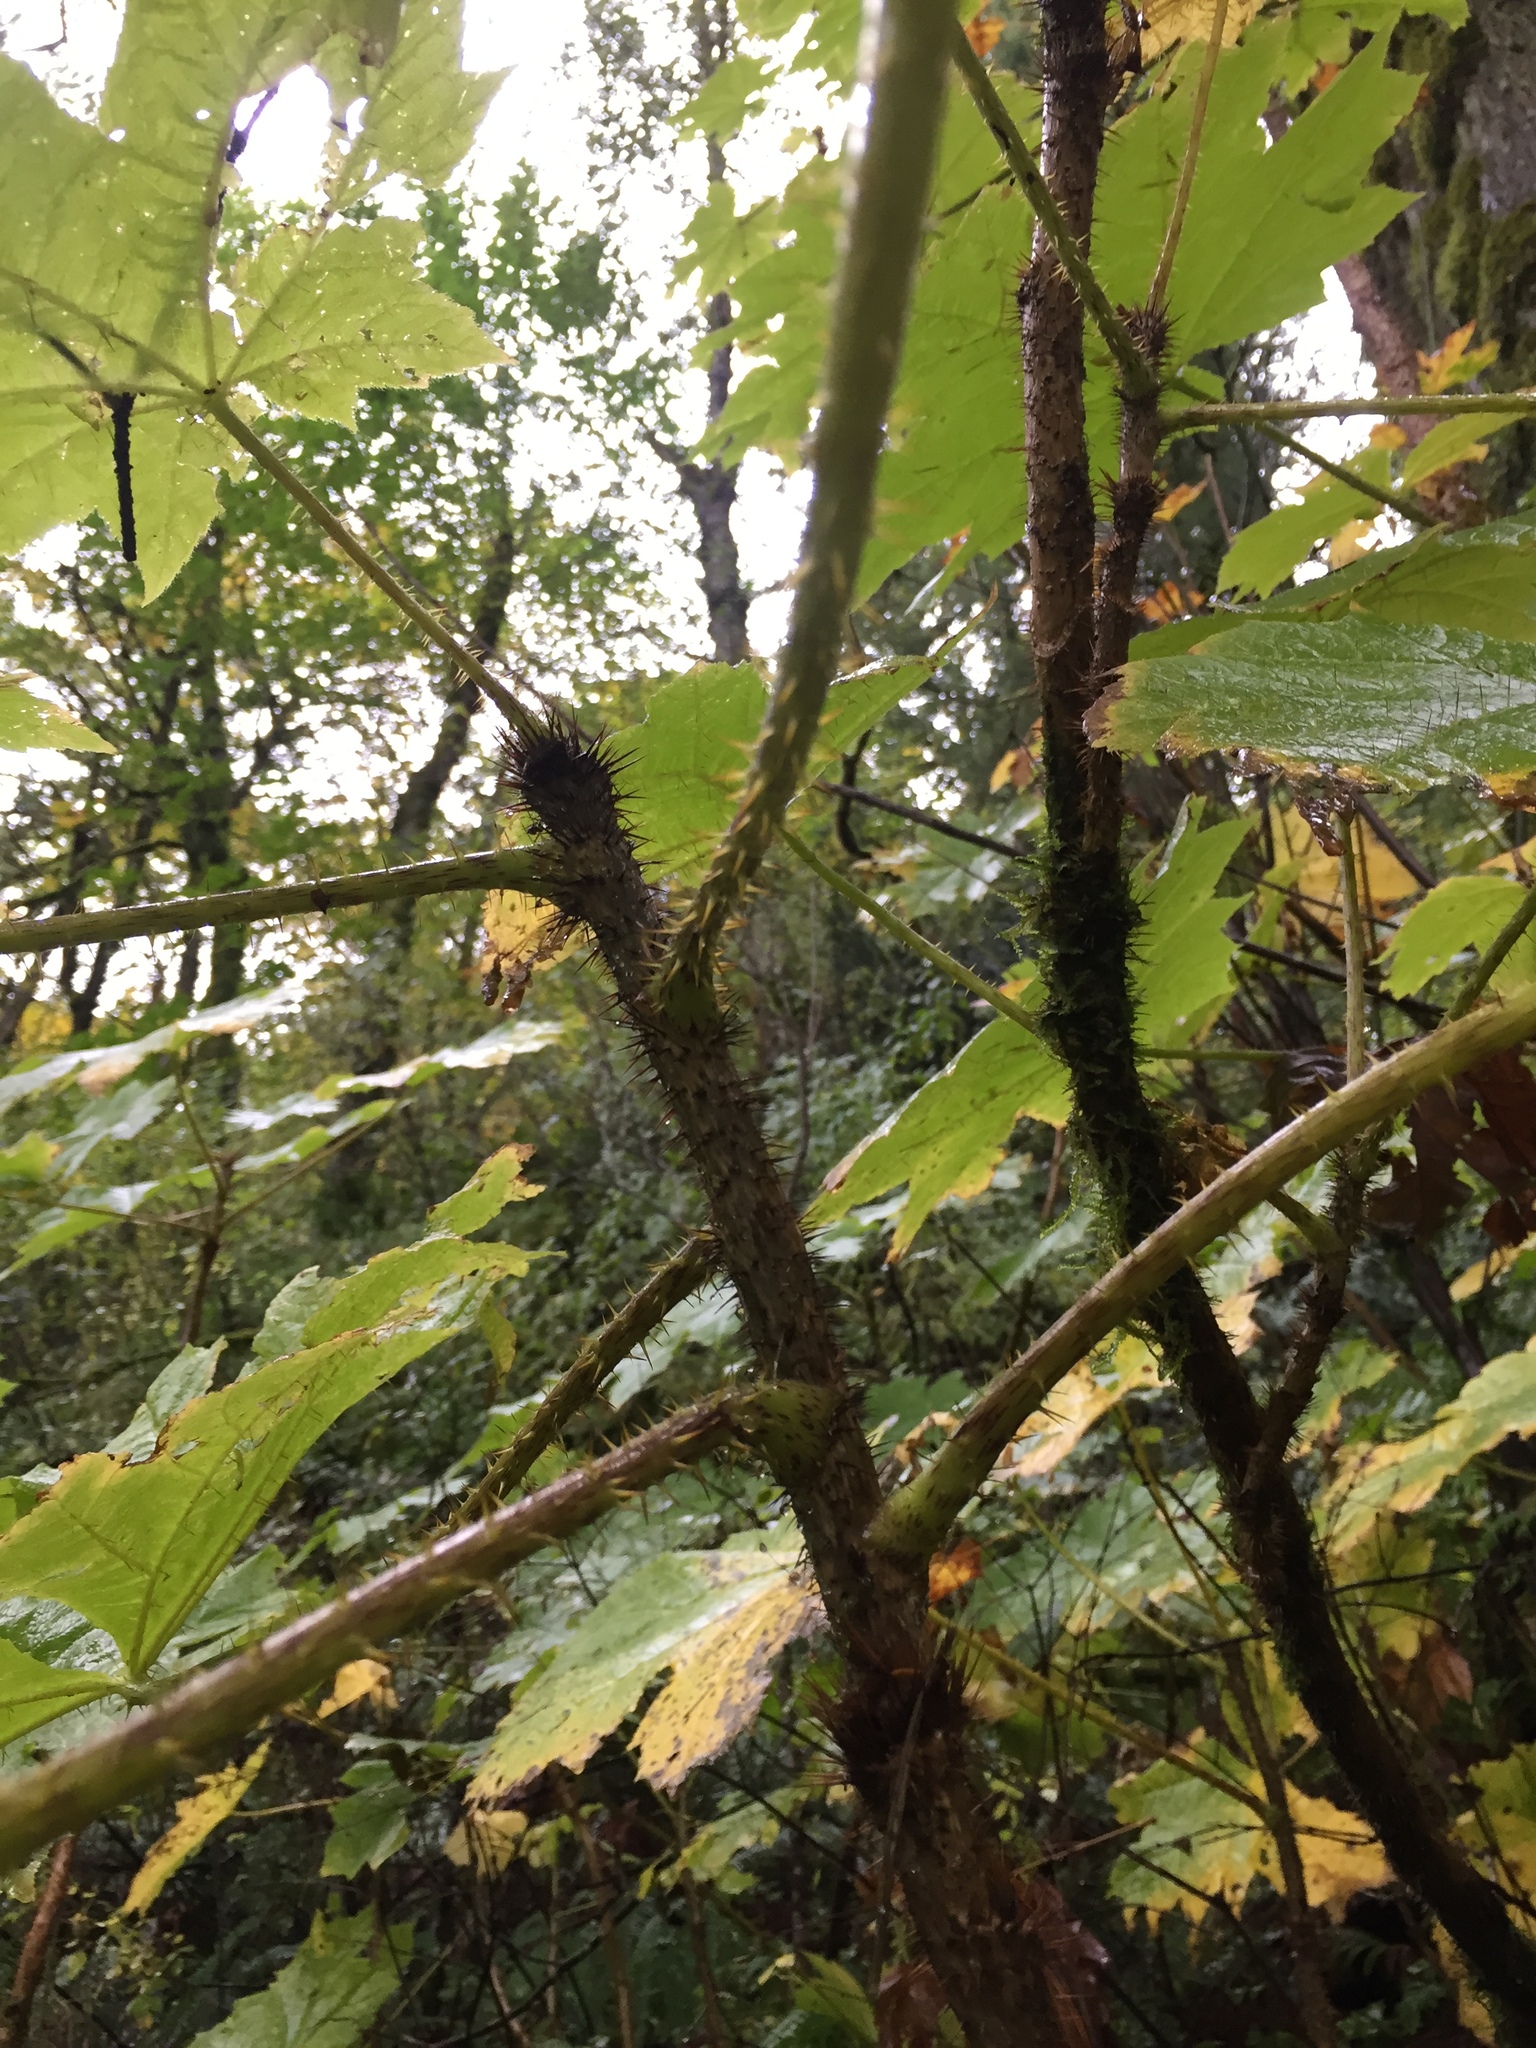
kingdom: Plantae
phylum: Tracheophyta
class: Magnoliopsida
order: Apiales
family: Araliaceae
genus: Oplopanax
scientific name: Oplopanax horridus
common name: Devil's walking-stick
